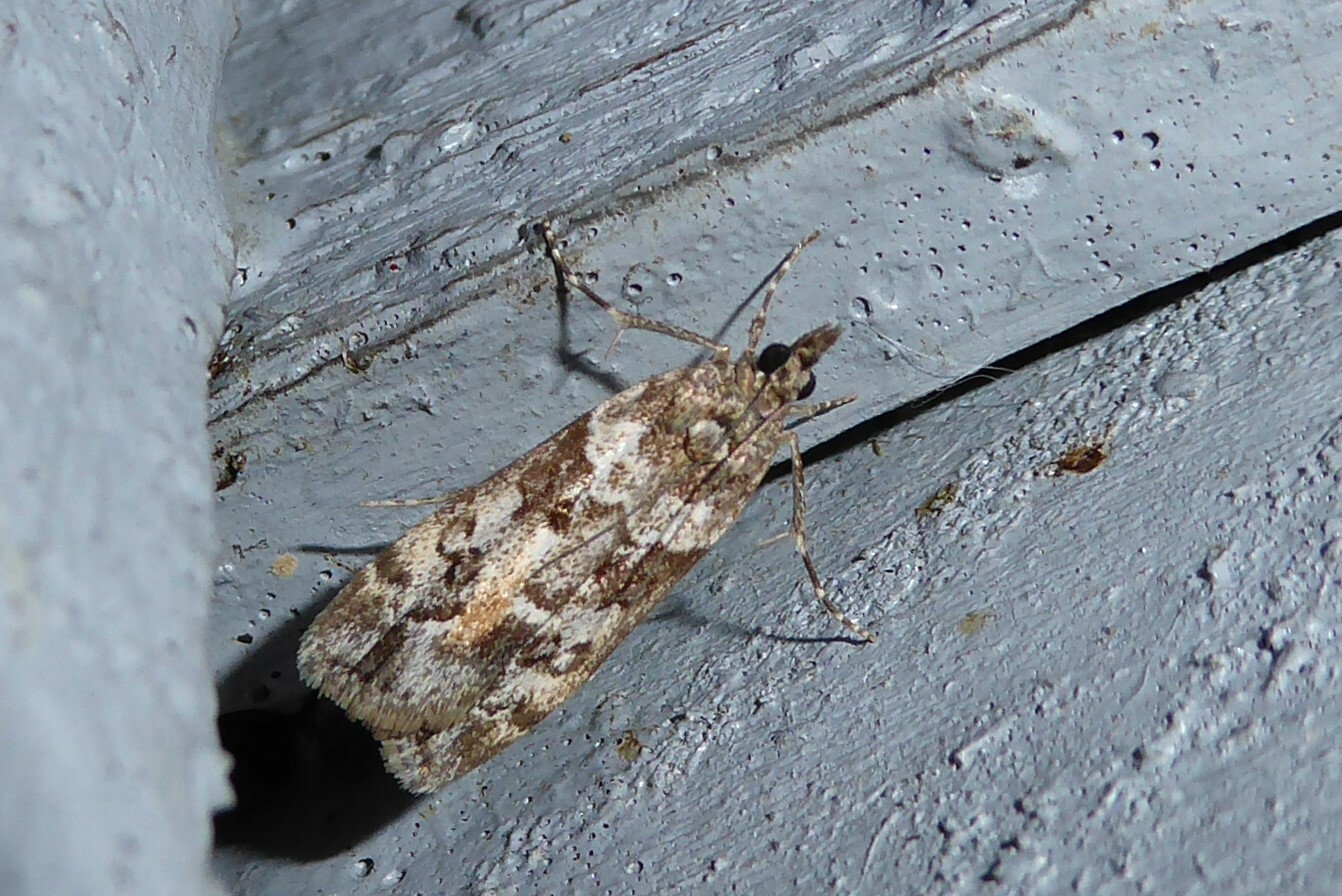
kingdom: Animalia
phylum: Arthropoda
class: Insecta
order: Lepidoptera
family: Crambidae
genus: Eudonia
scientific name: Eudonia submarginalis
